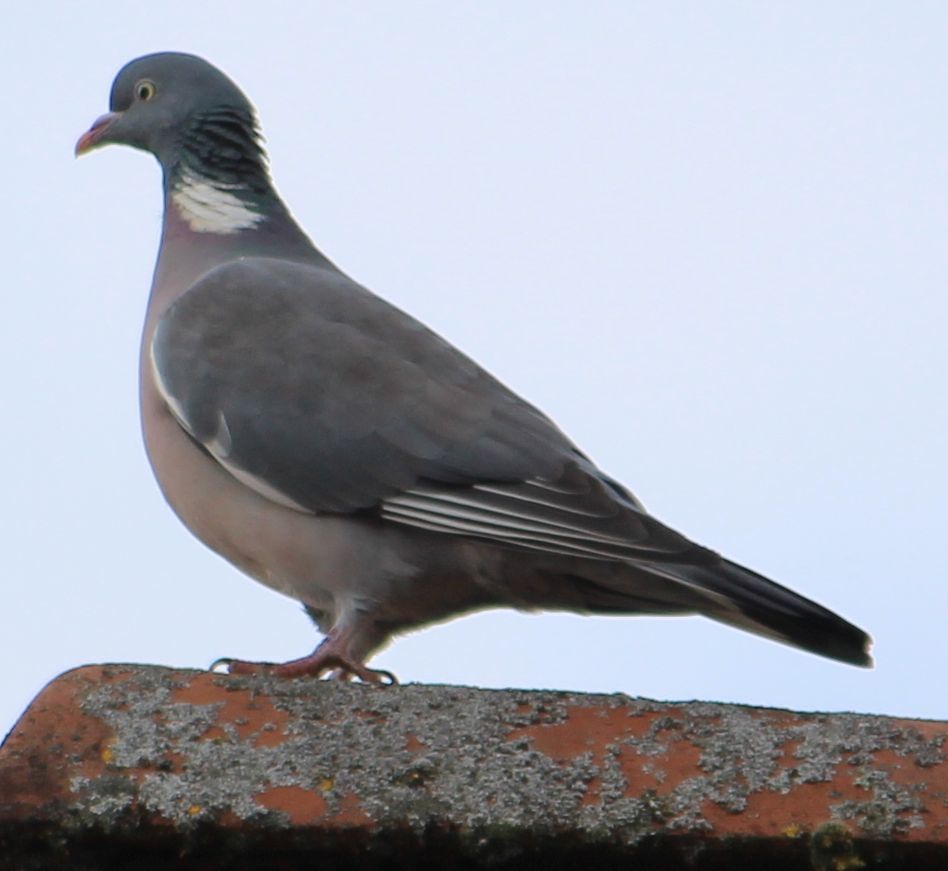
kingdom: Animalia
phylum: Chordata
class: Aves
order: Columbiformes
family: Columbidae
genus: Columba
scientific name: Columba palumbus
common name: Common wood pigeon
